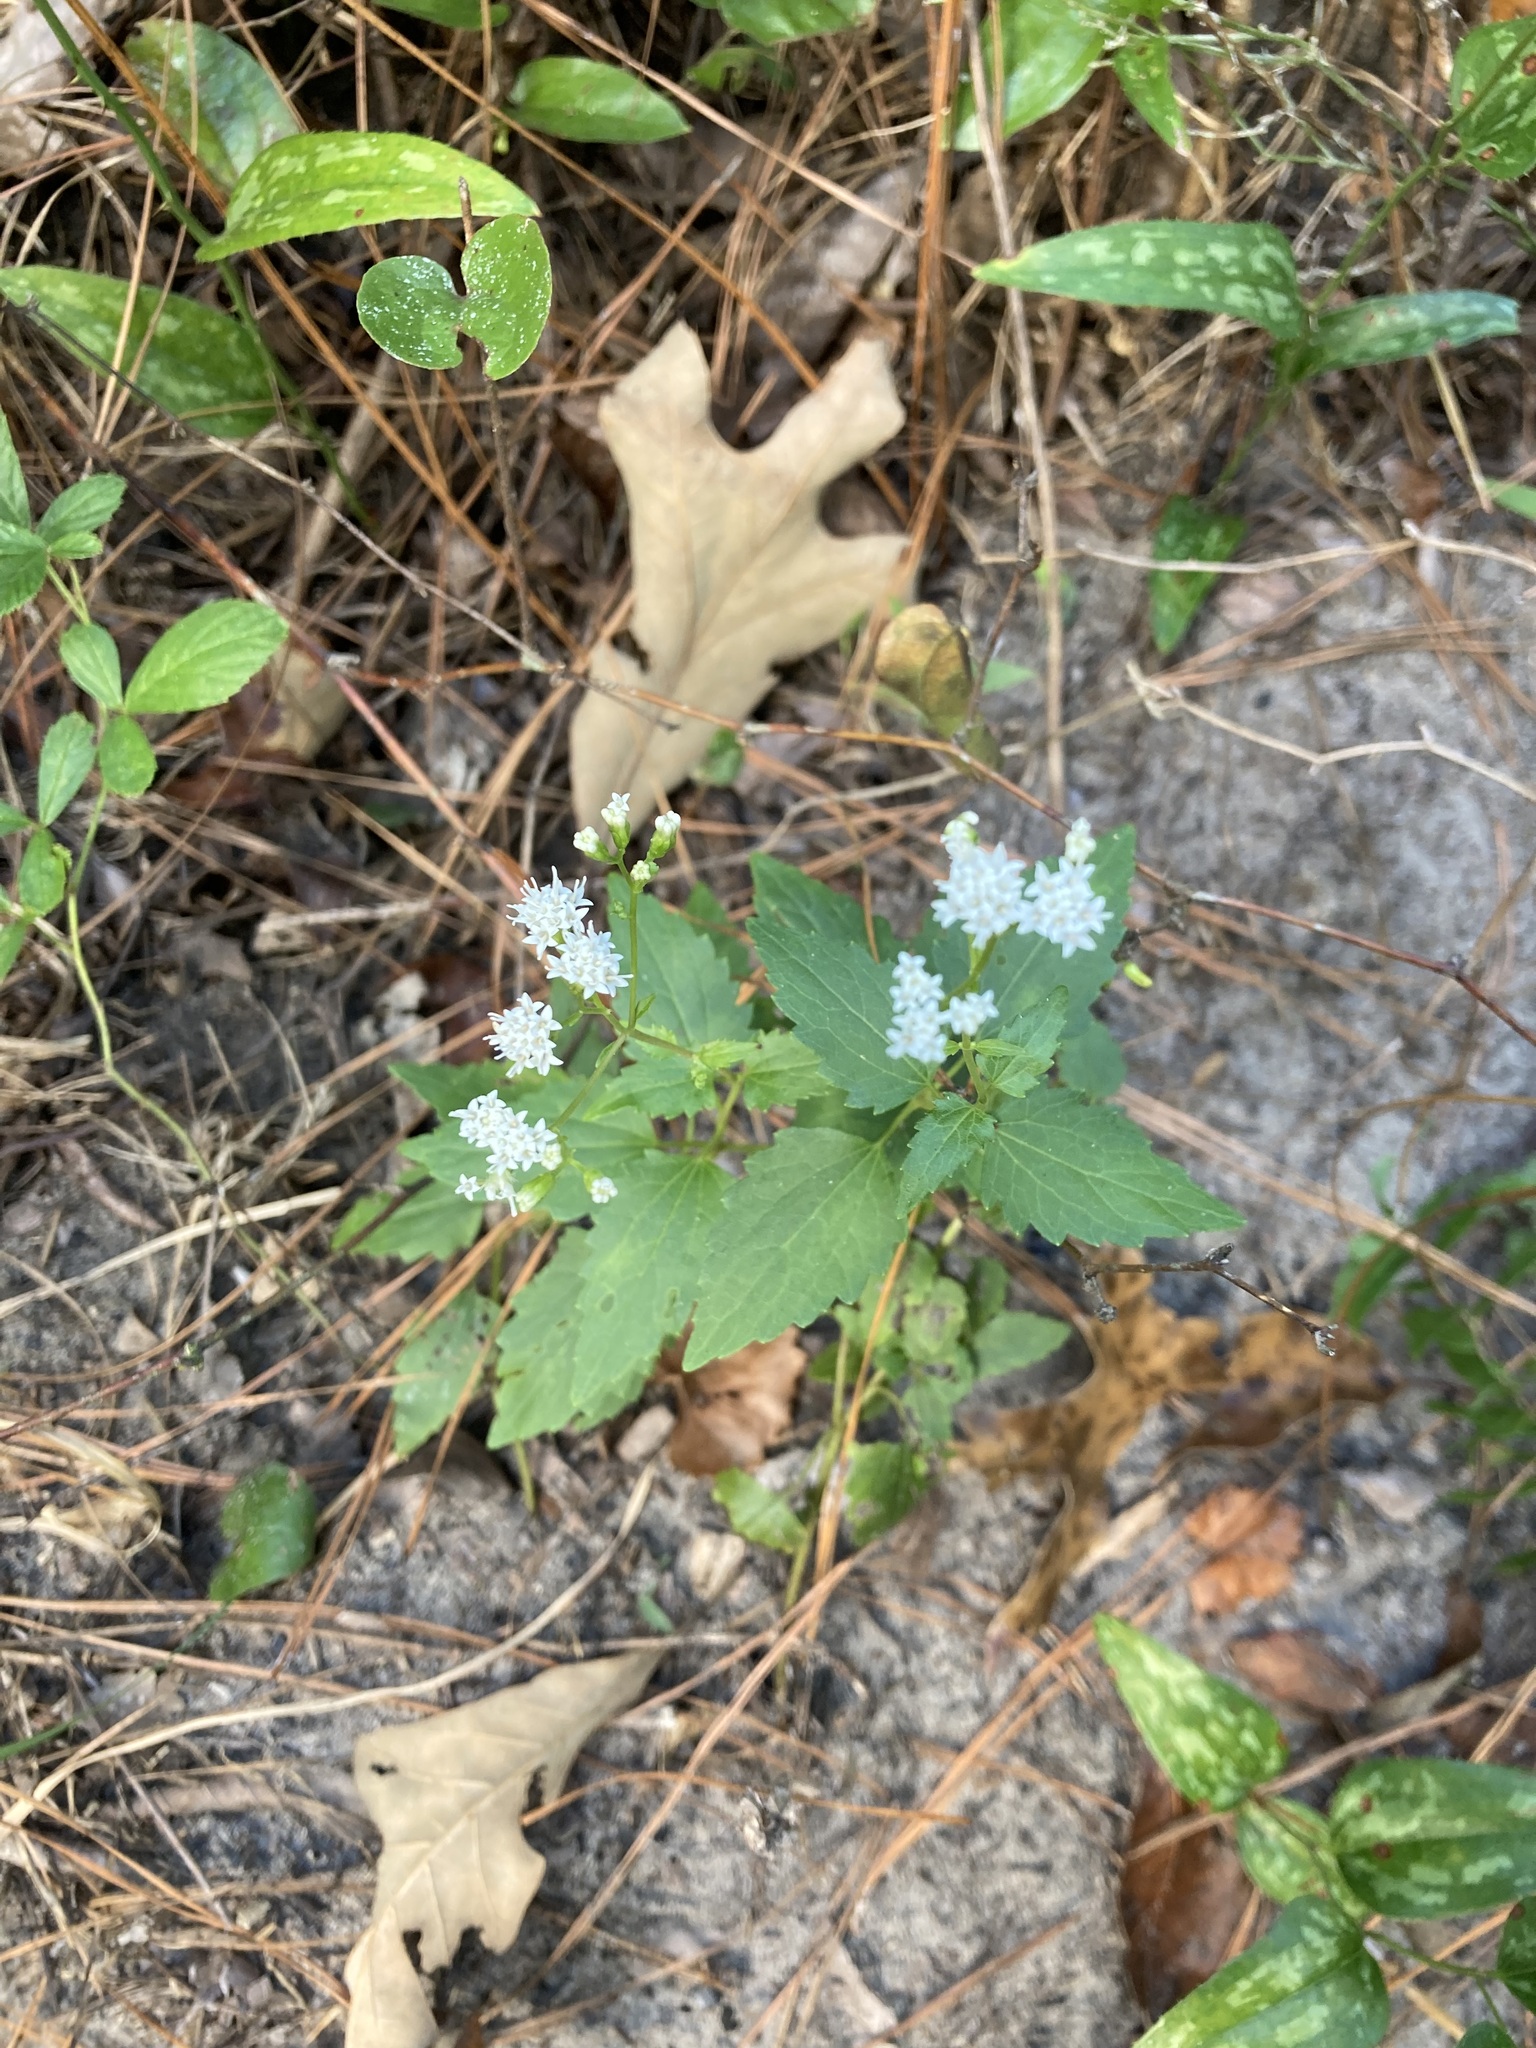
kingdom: Plantae
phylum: Tracheophyta
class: Magnoliopsida
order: Asterales
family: Asteraceae
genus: Ageratina
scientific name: Ageratina jucunda
